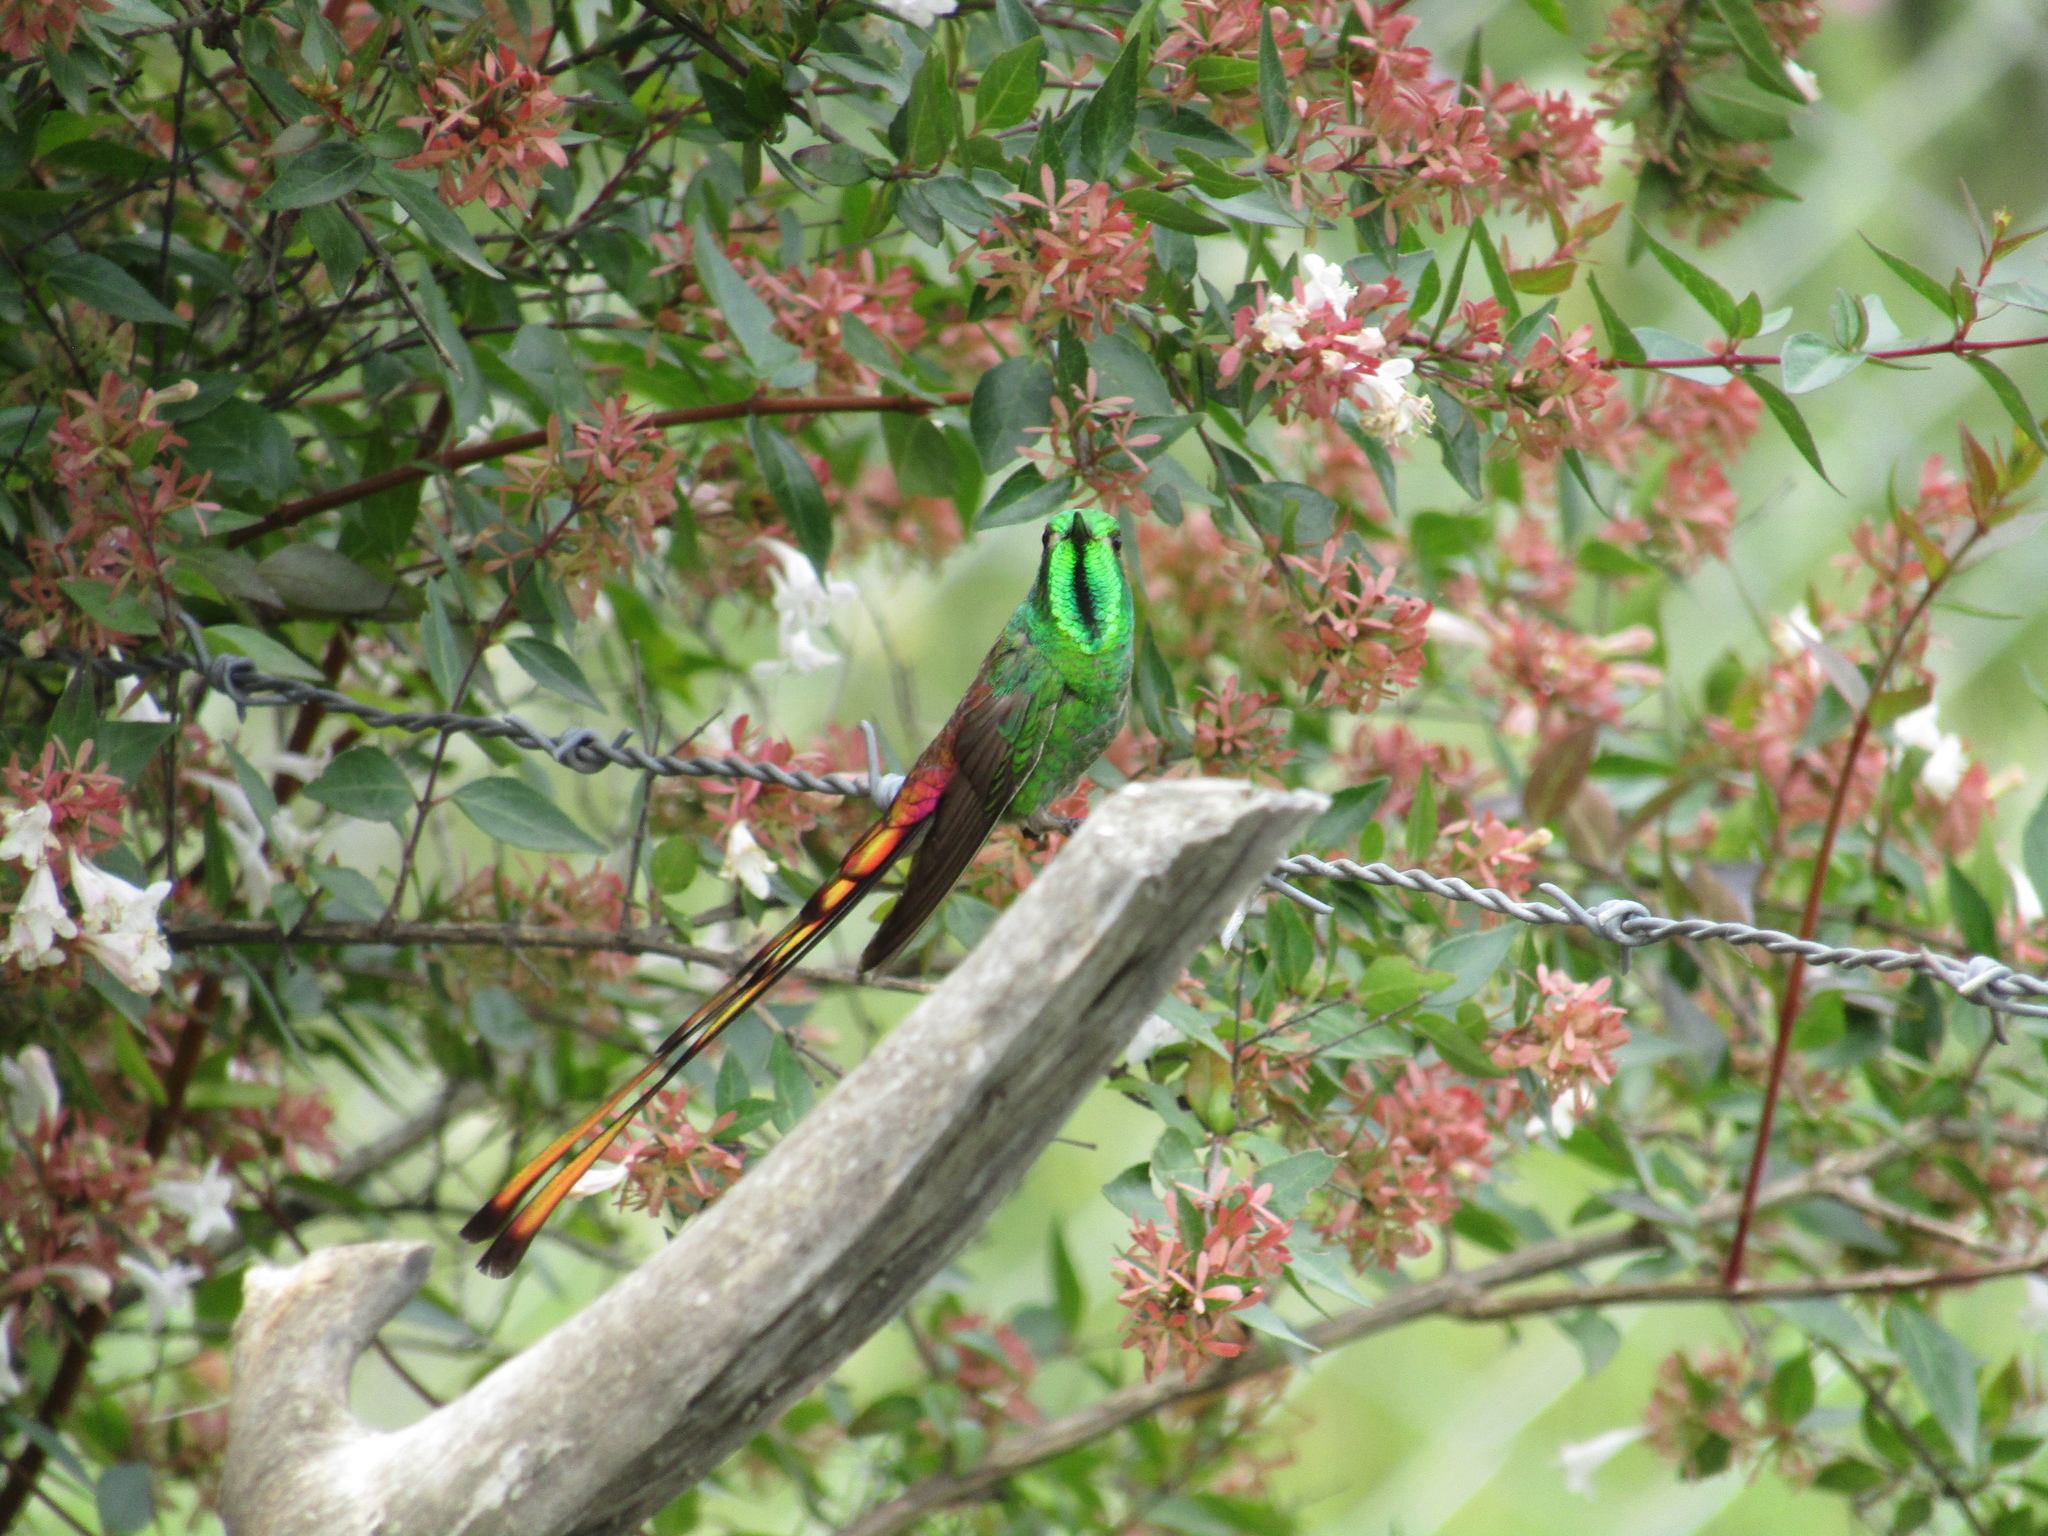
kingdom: Animalia
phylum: Chordata
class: Aves
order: Apodiformes
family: Trochilidae
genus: Sappho
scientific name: Sappho sparganurus
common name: Red-tailed comet
